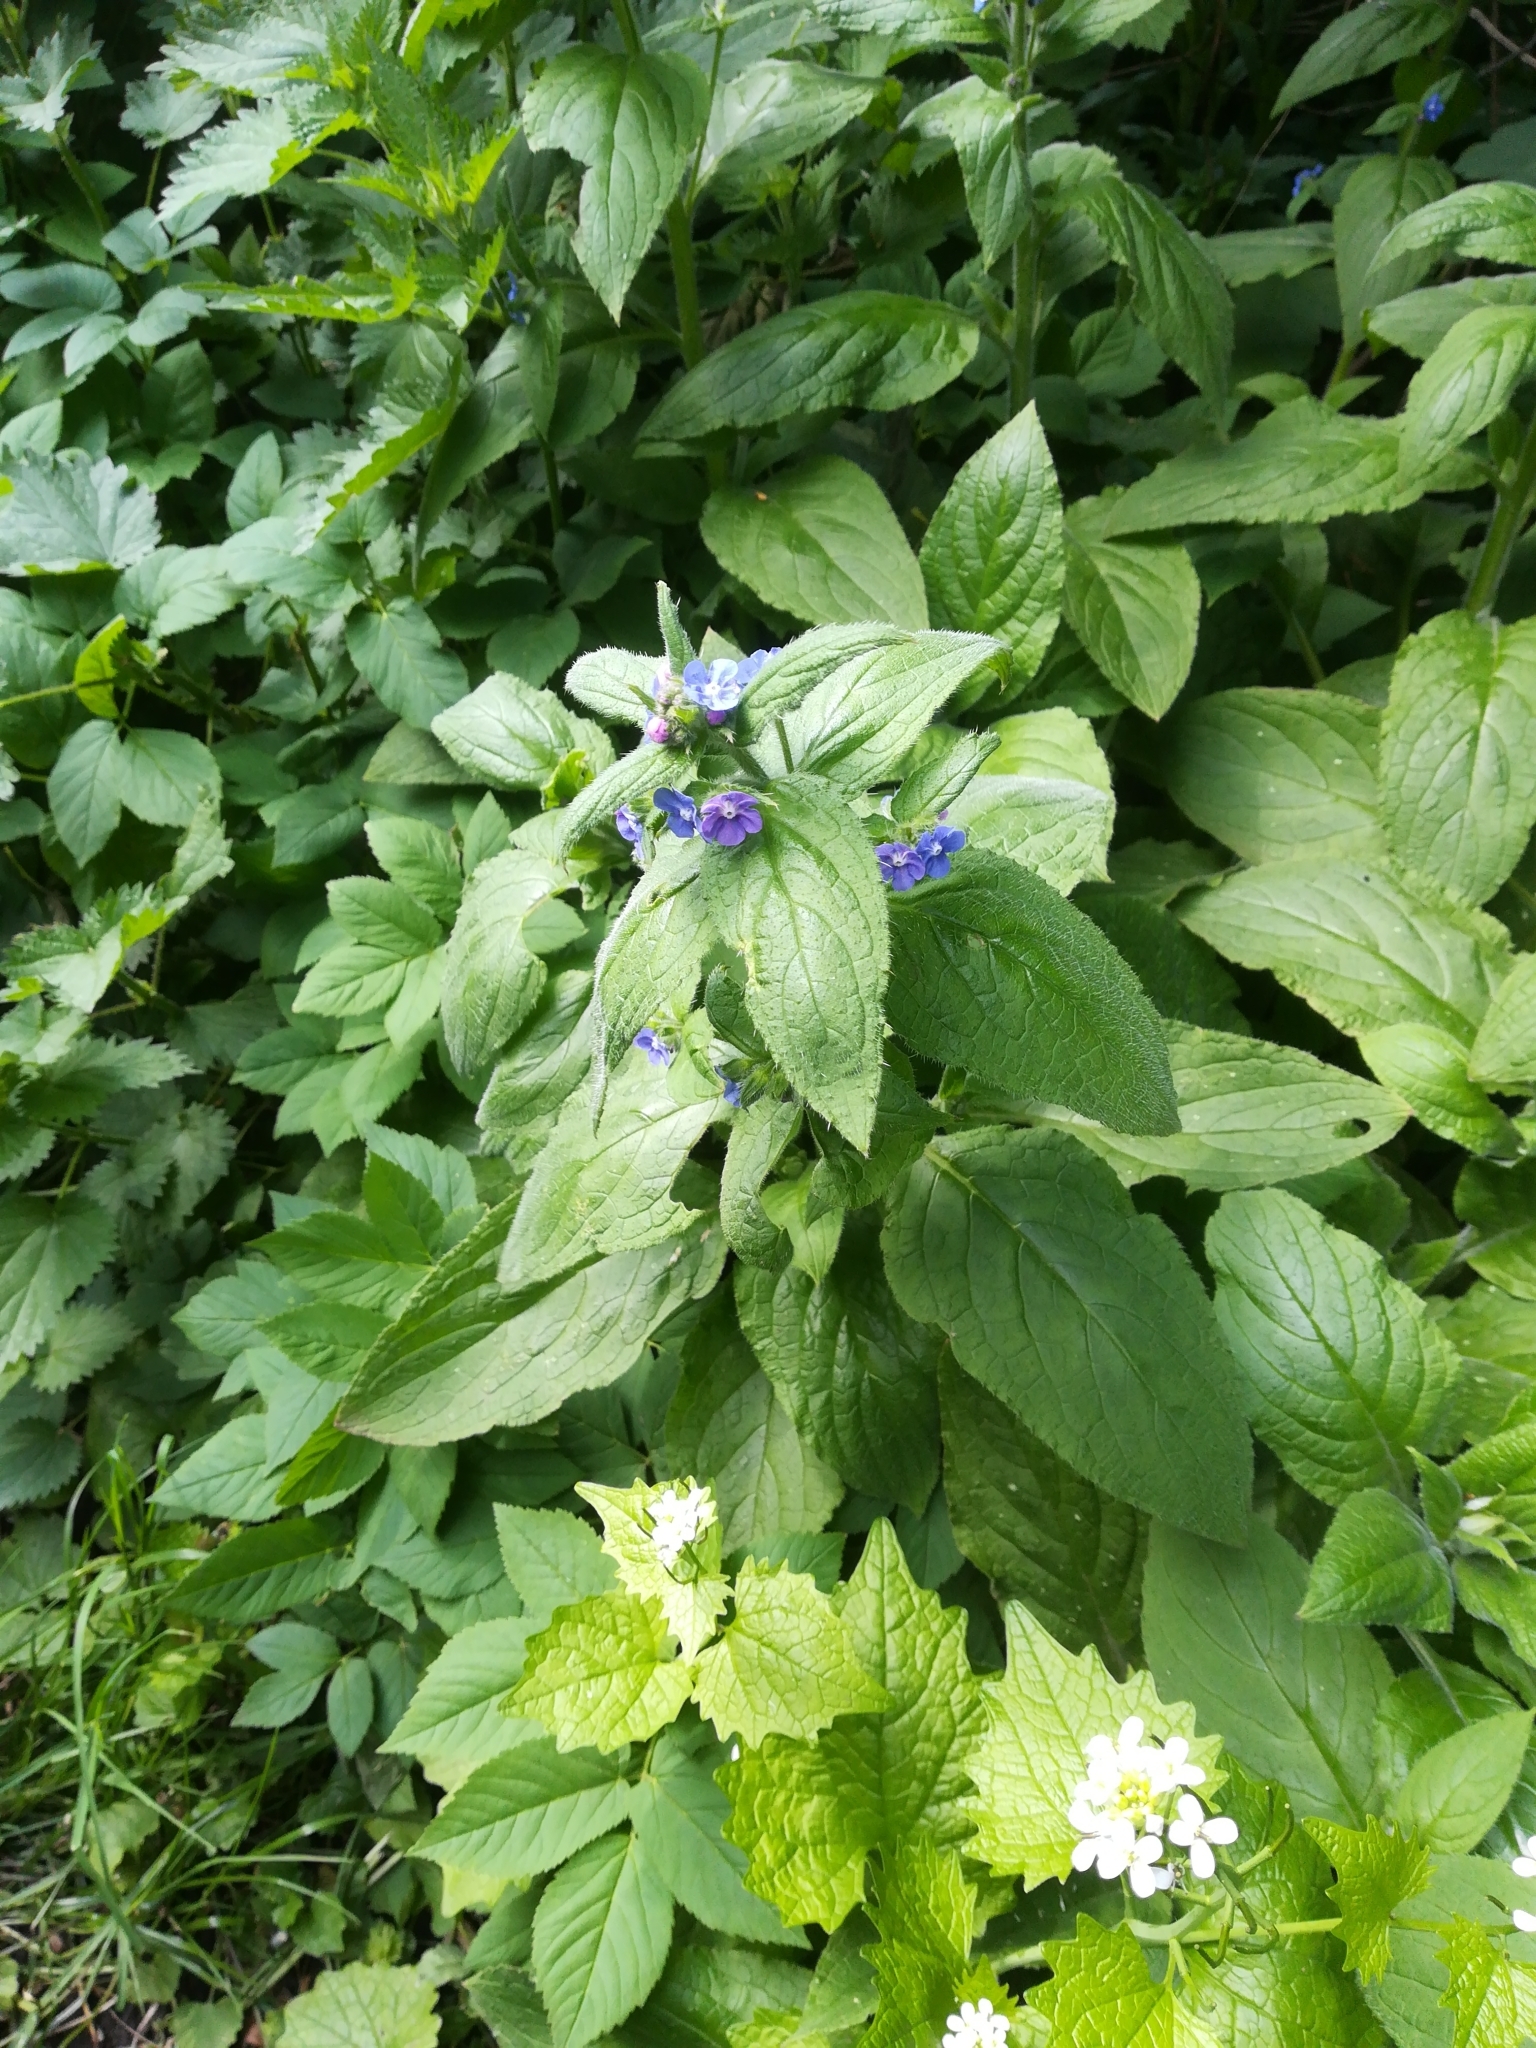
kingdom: Plantae
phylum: Tracheophyta
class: Magnoliopsida
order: Boraginales
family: Boraginaceae
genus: Pentaglottis
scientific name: Pentaglottis sempervirens
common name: Green alkanet
